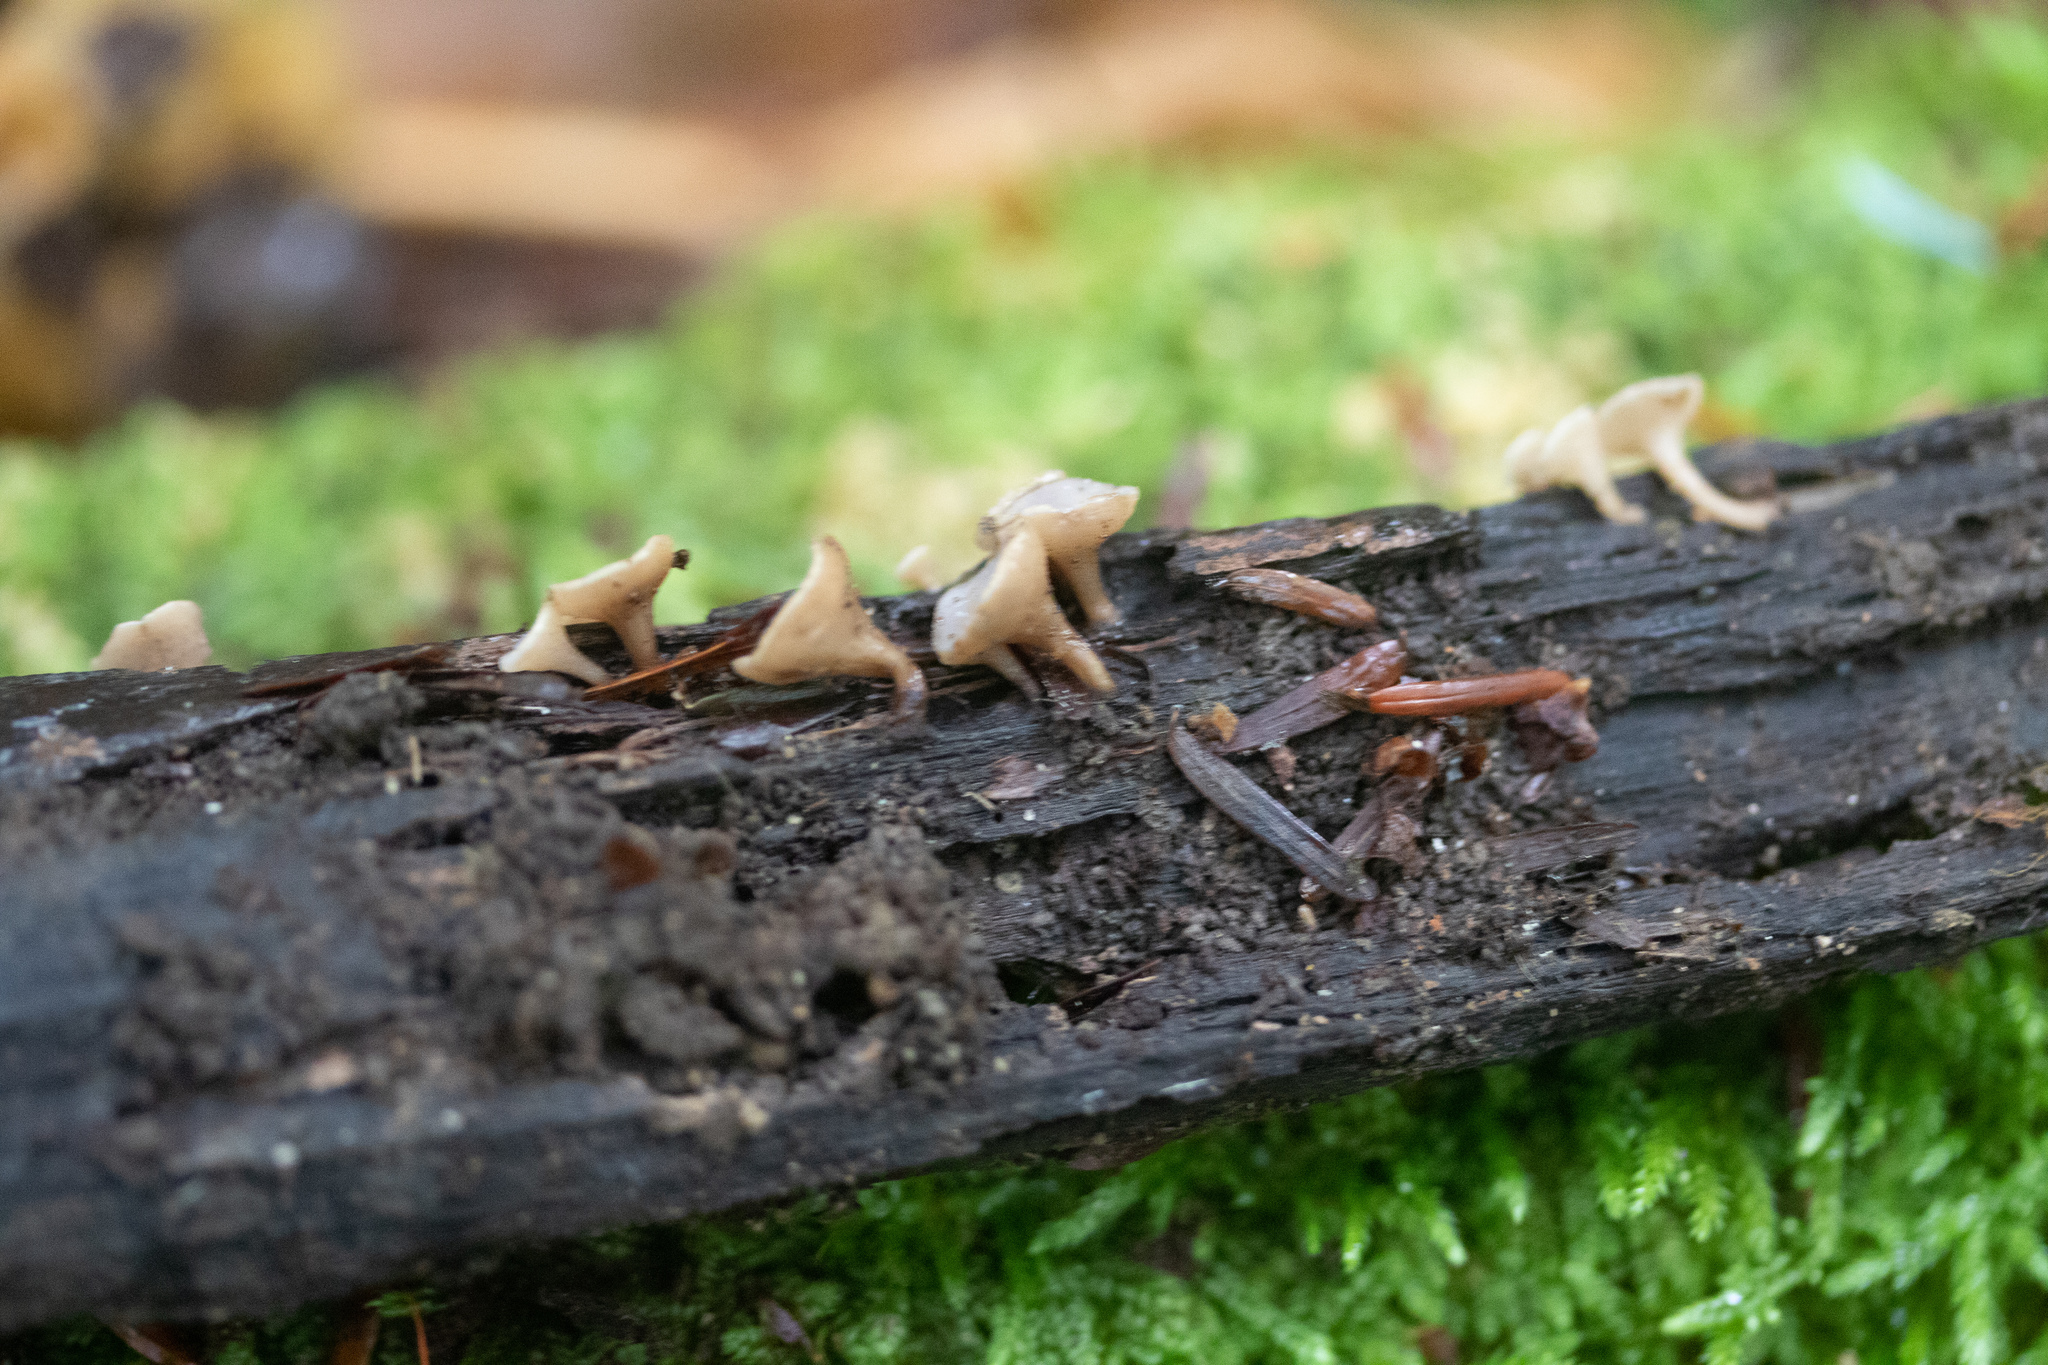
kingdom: Fungi
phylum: Ascomycota
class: Leotiomycetes
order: Helotiales
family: Helotiaceae
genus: Tatraea
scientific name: Tatraea macrospora
